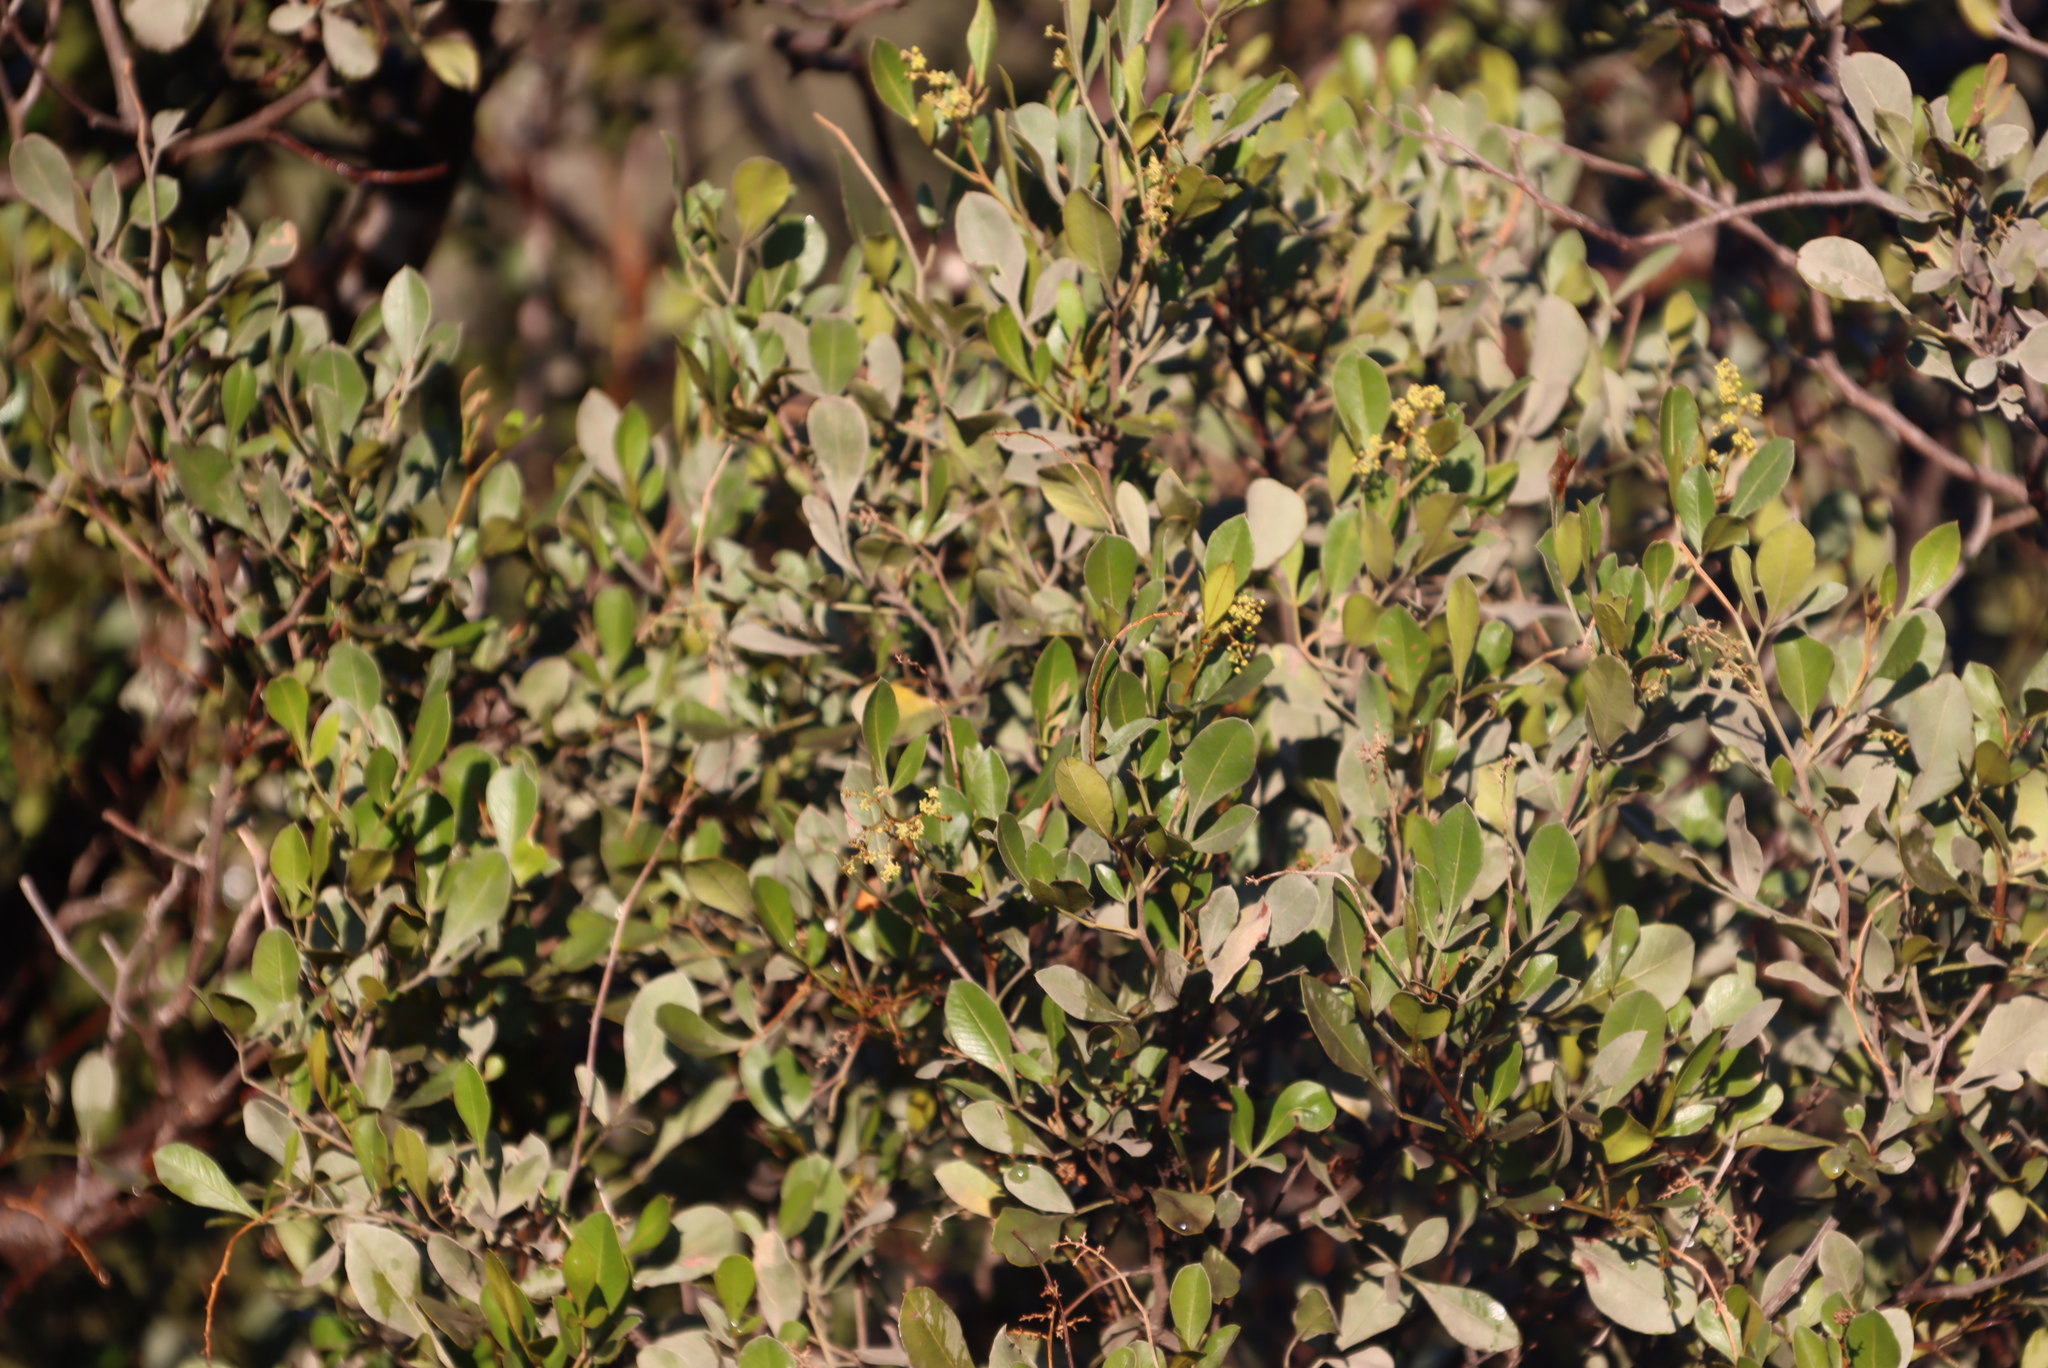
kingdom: Plantae
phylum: Tracheophyta
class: Magnoliopsida
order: Sapindales
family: Anacardiaceae
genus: Searsia
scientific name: Searsia pallens
